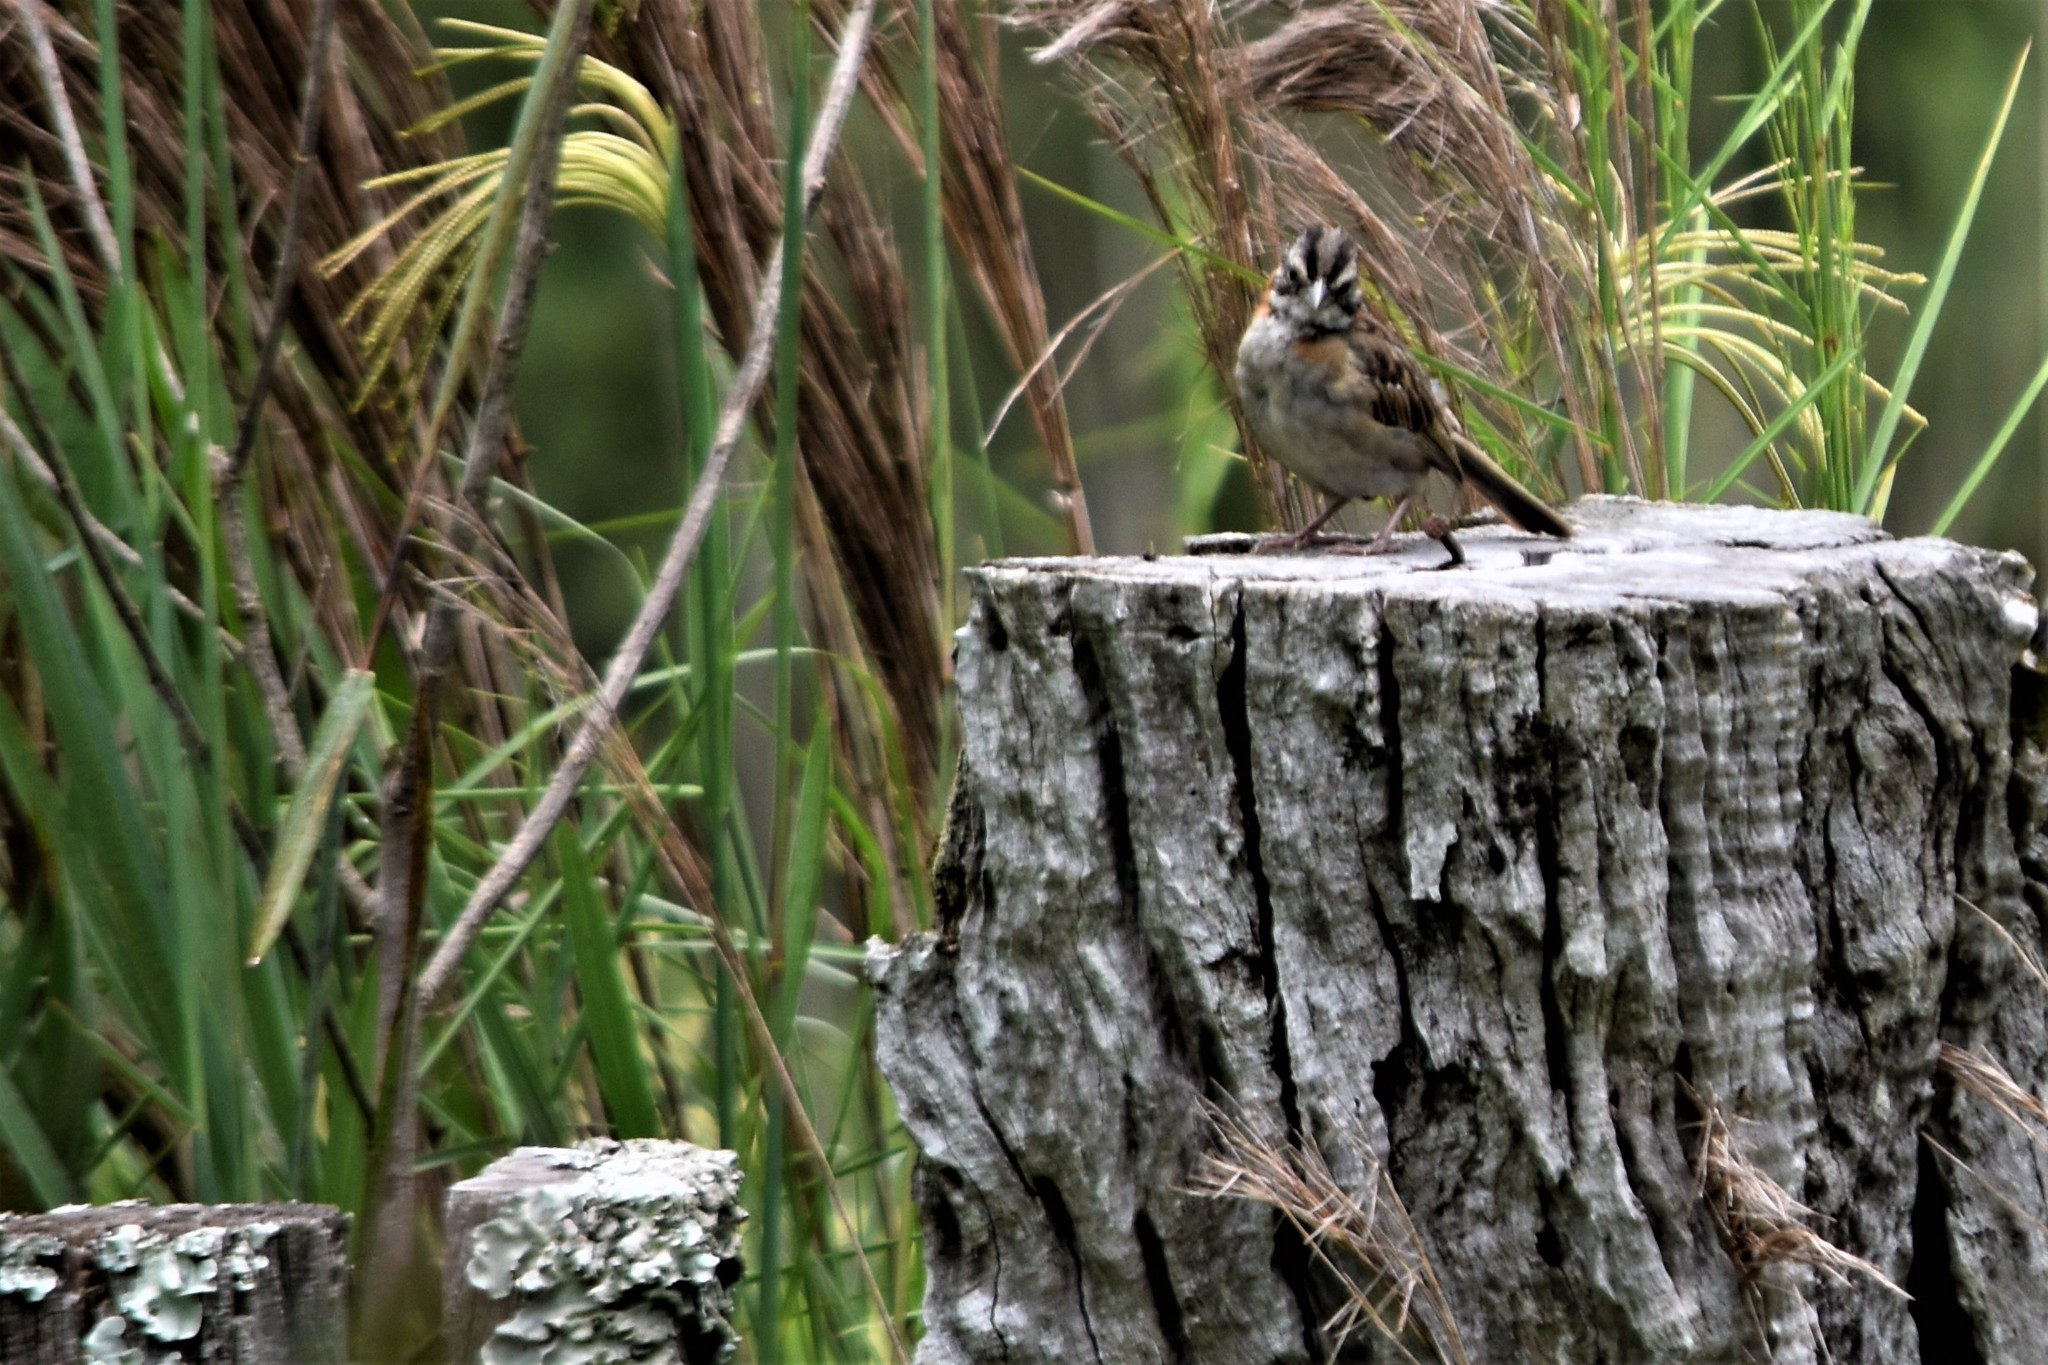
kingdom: Animalia
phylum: Chordata
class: Aves
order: Passeriformes
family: Passerellidae
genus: Zonotrichia
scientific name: Zonotrichia capensis
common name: Rufous-collared sparrow
